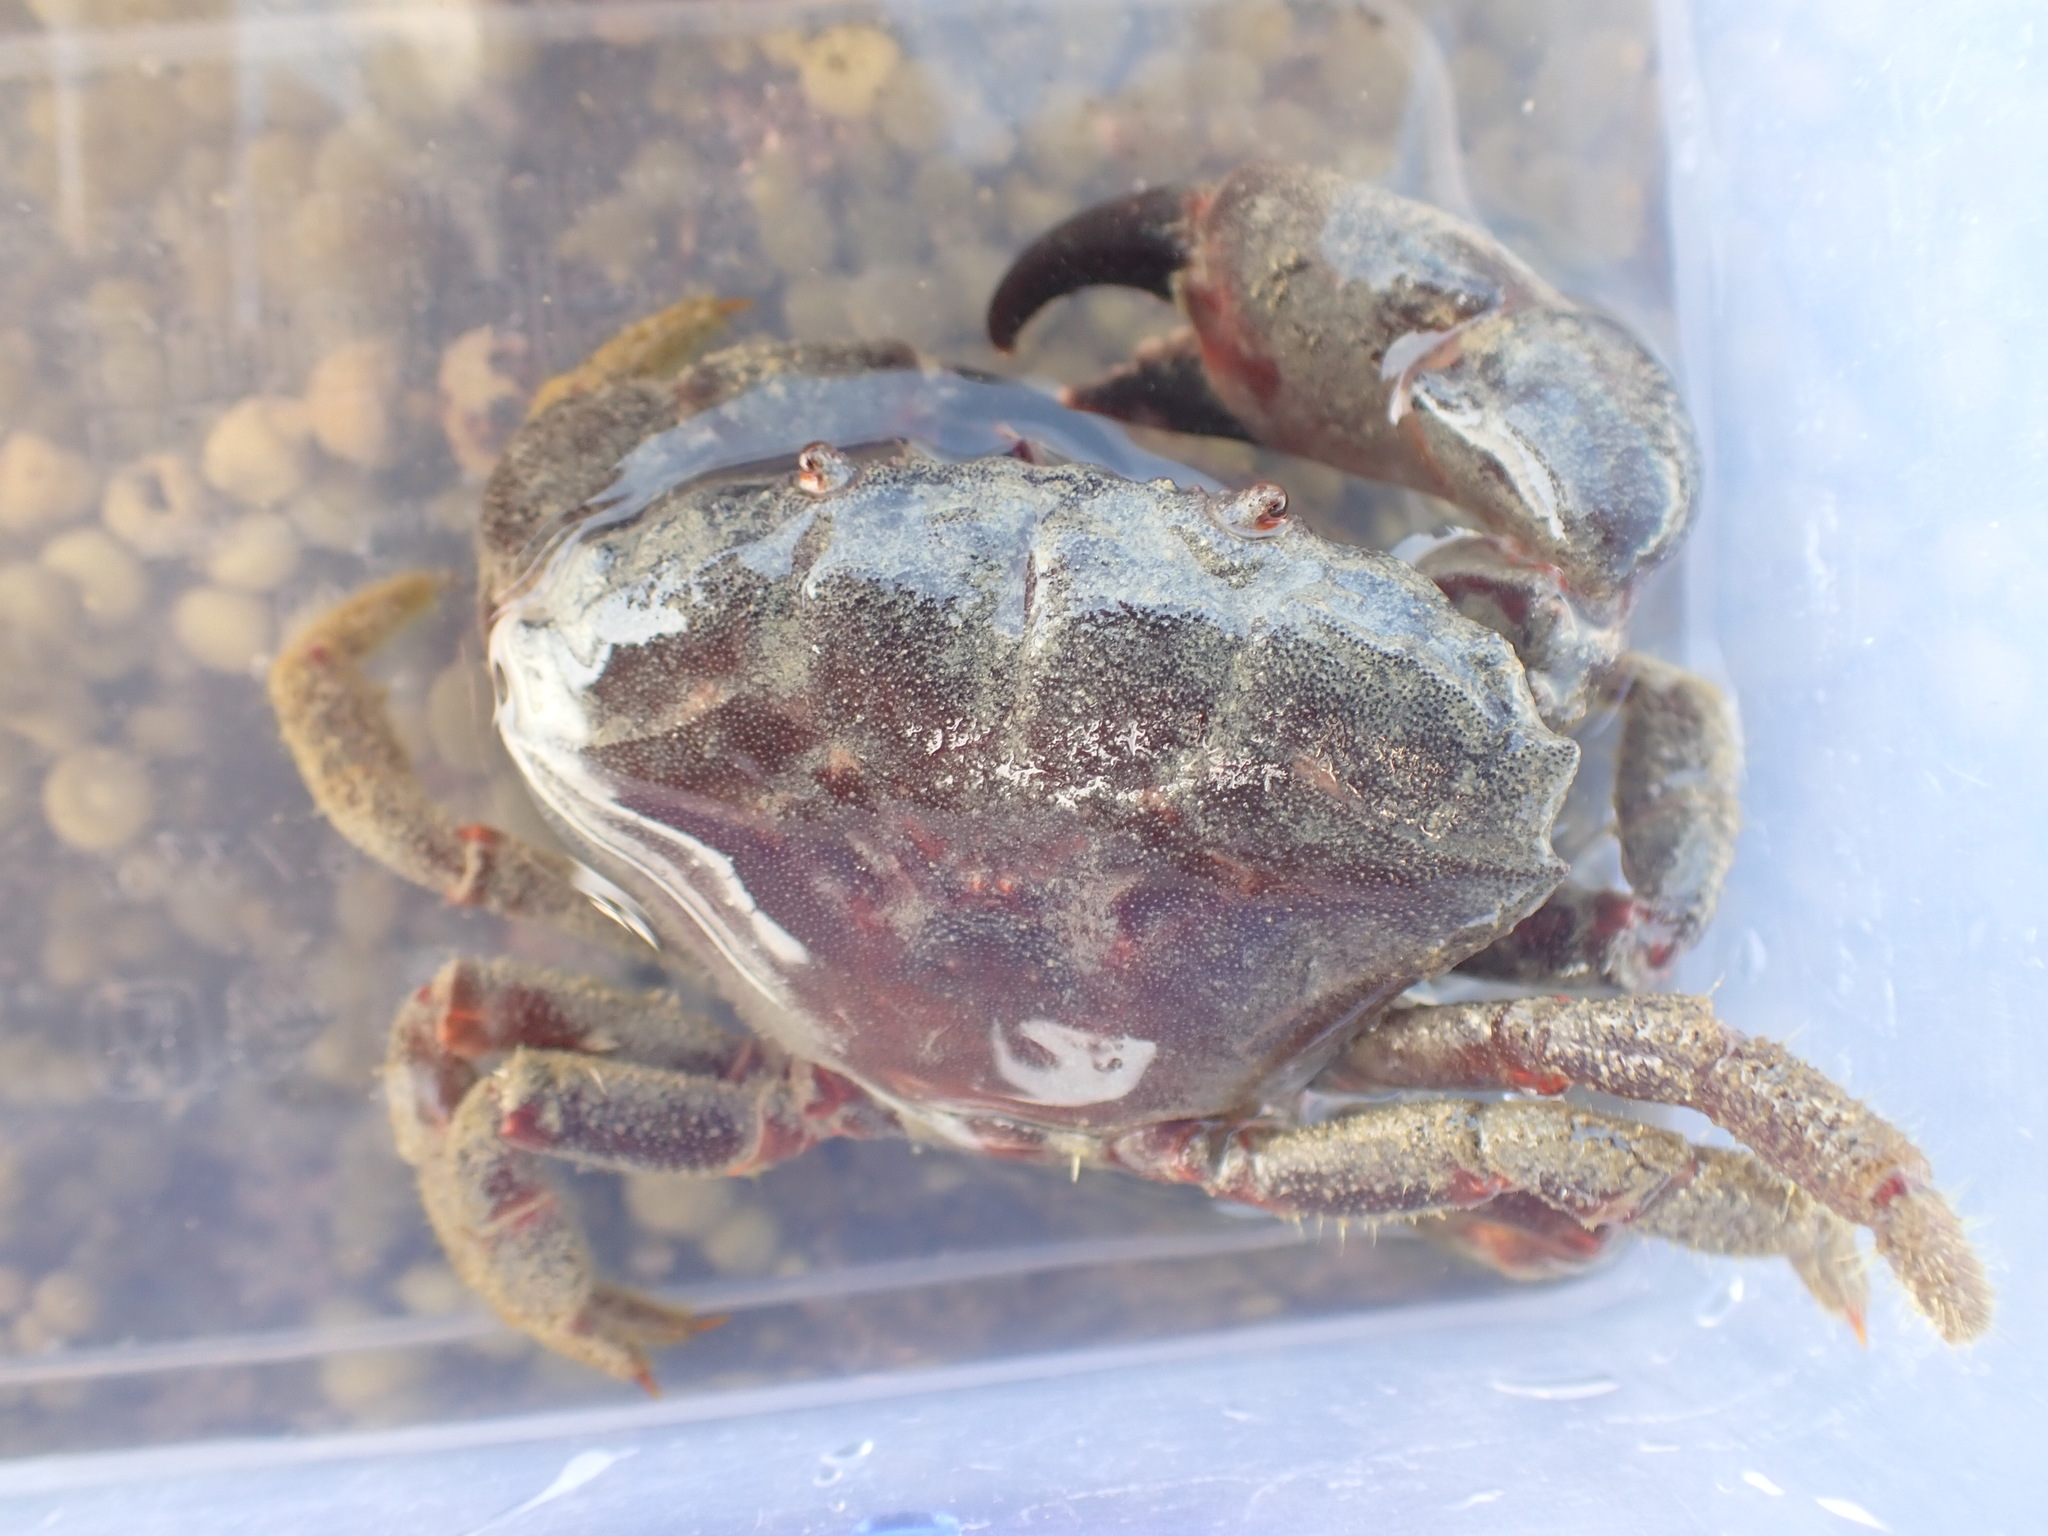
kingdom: Animalia
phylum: Arthropoda
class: Malacostraca
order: Decapoda
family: Oziidae
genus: Ozius
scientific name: Ozius deplanatus
